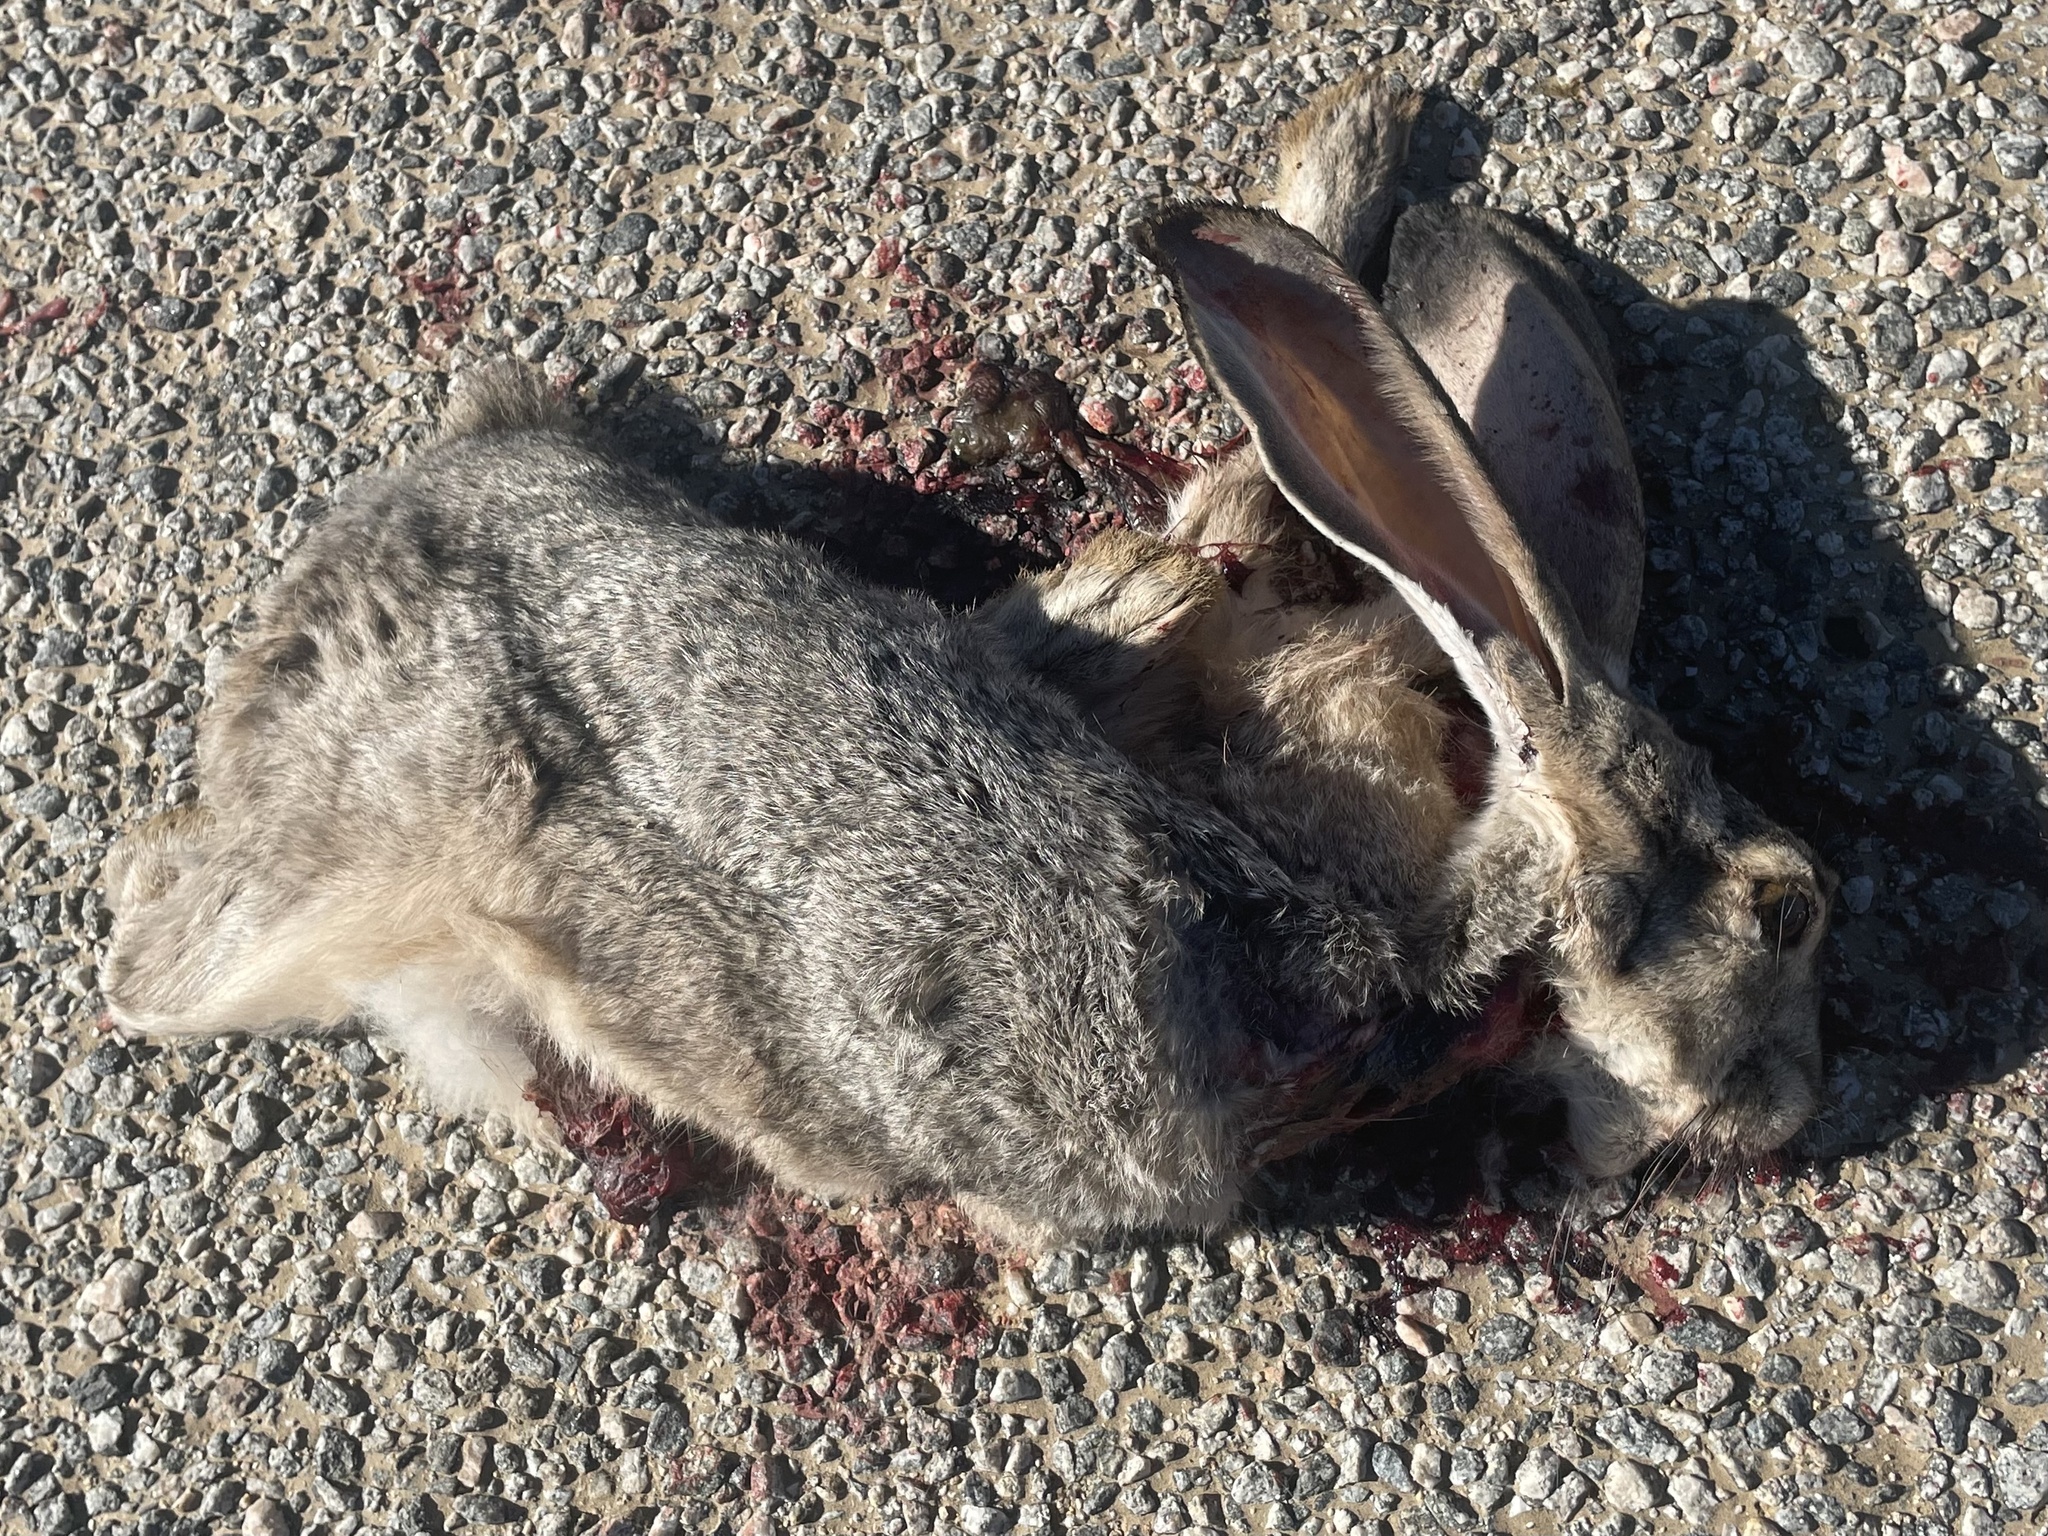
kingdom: Animalia
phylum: Chordata
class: Mammalia
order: Lagomorpha
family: Leporidae
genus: Lepus
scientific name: Lepus californicus
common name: Black-tailed jackrabbit
